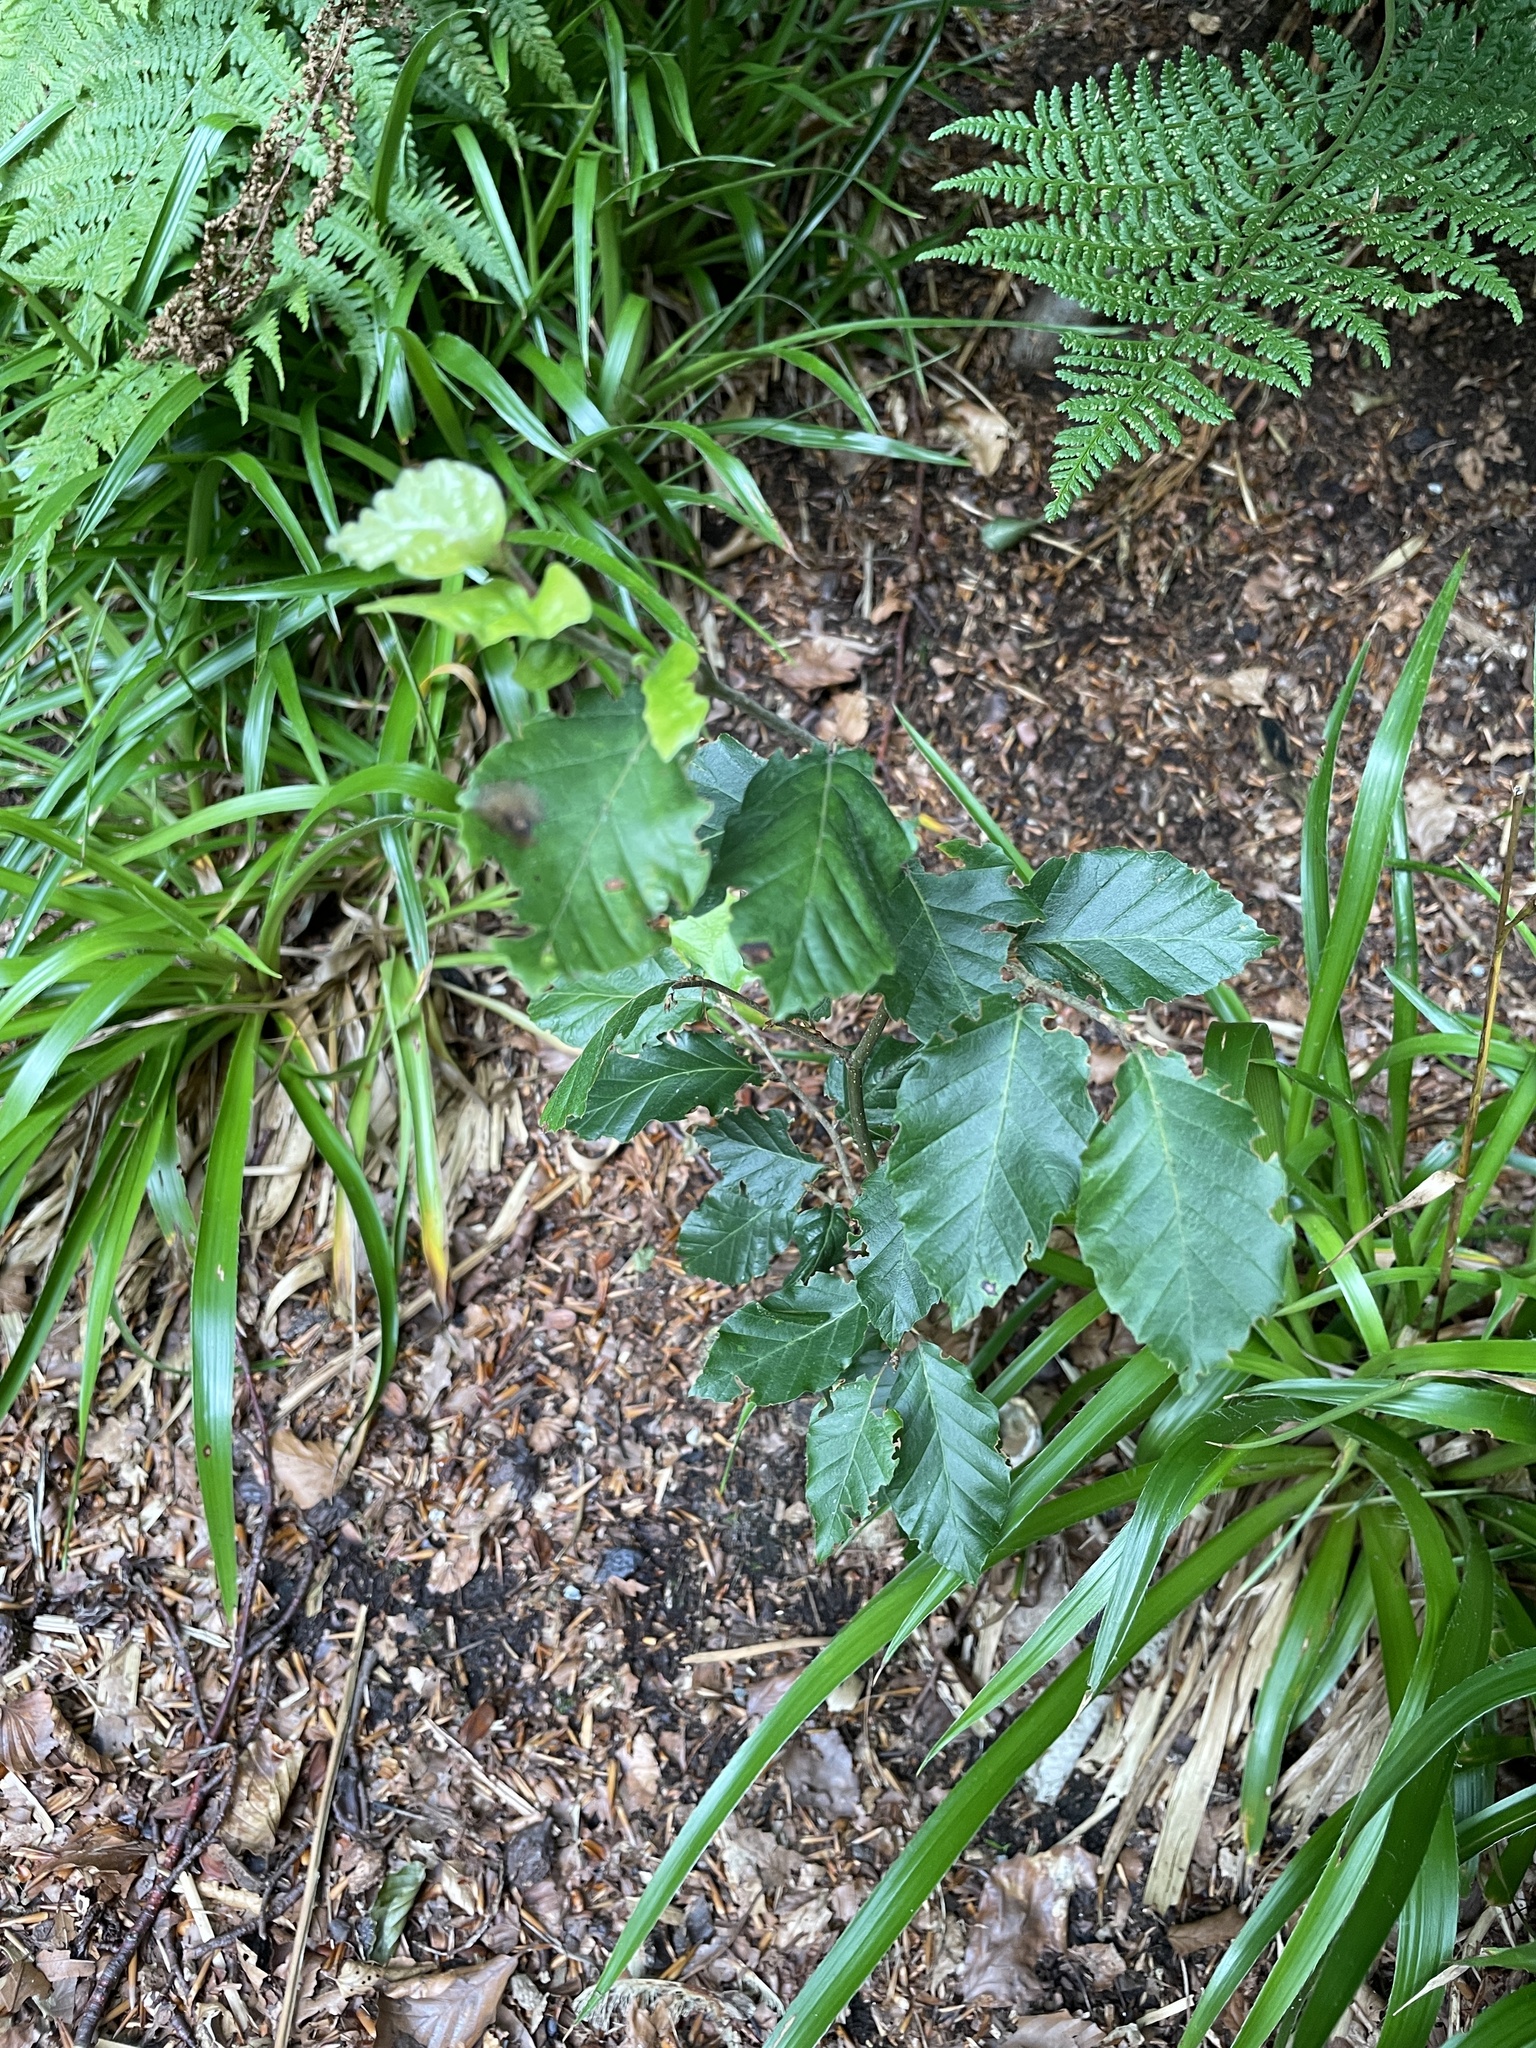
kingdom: Plantae
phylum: Tracheophyta
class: Magnoliopsida
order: Fagales
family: Fagaceae
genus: Fagus
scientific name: Fagus sylvatica
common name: Beech
